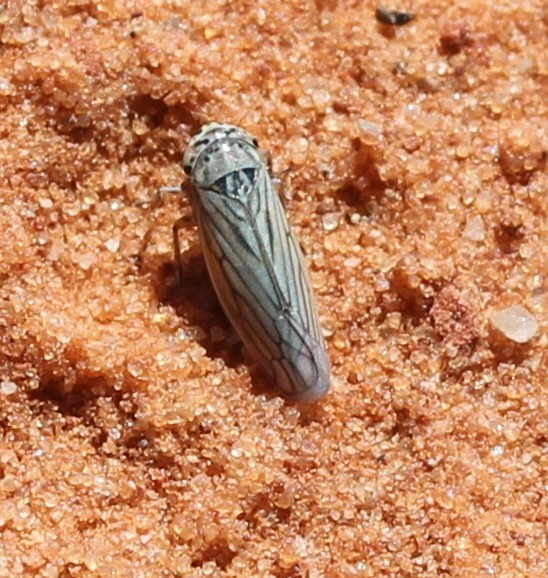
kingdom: Animalia
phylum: Arthropoda
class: Insecta
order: Hemiptera
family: Cicadellidae
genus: Exitianus
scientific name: Exitianus exitiosus
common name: Gray lawn leafhopper
